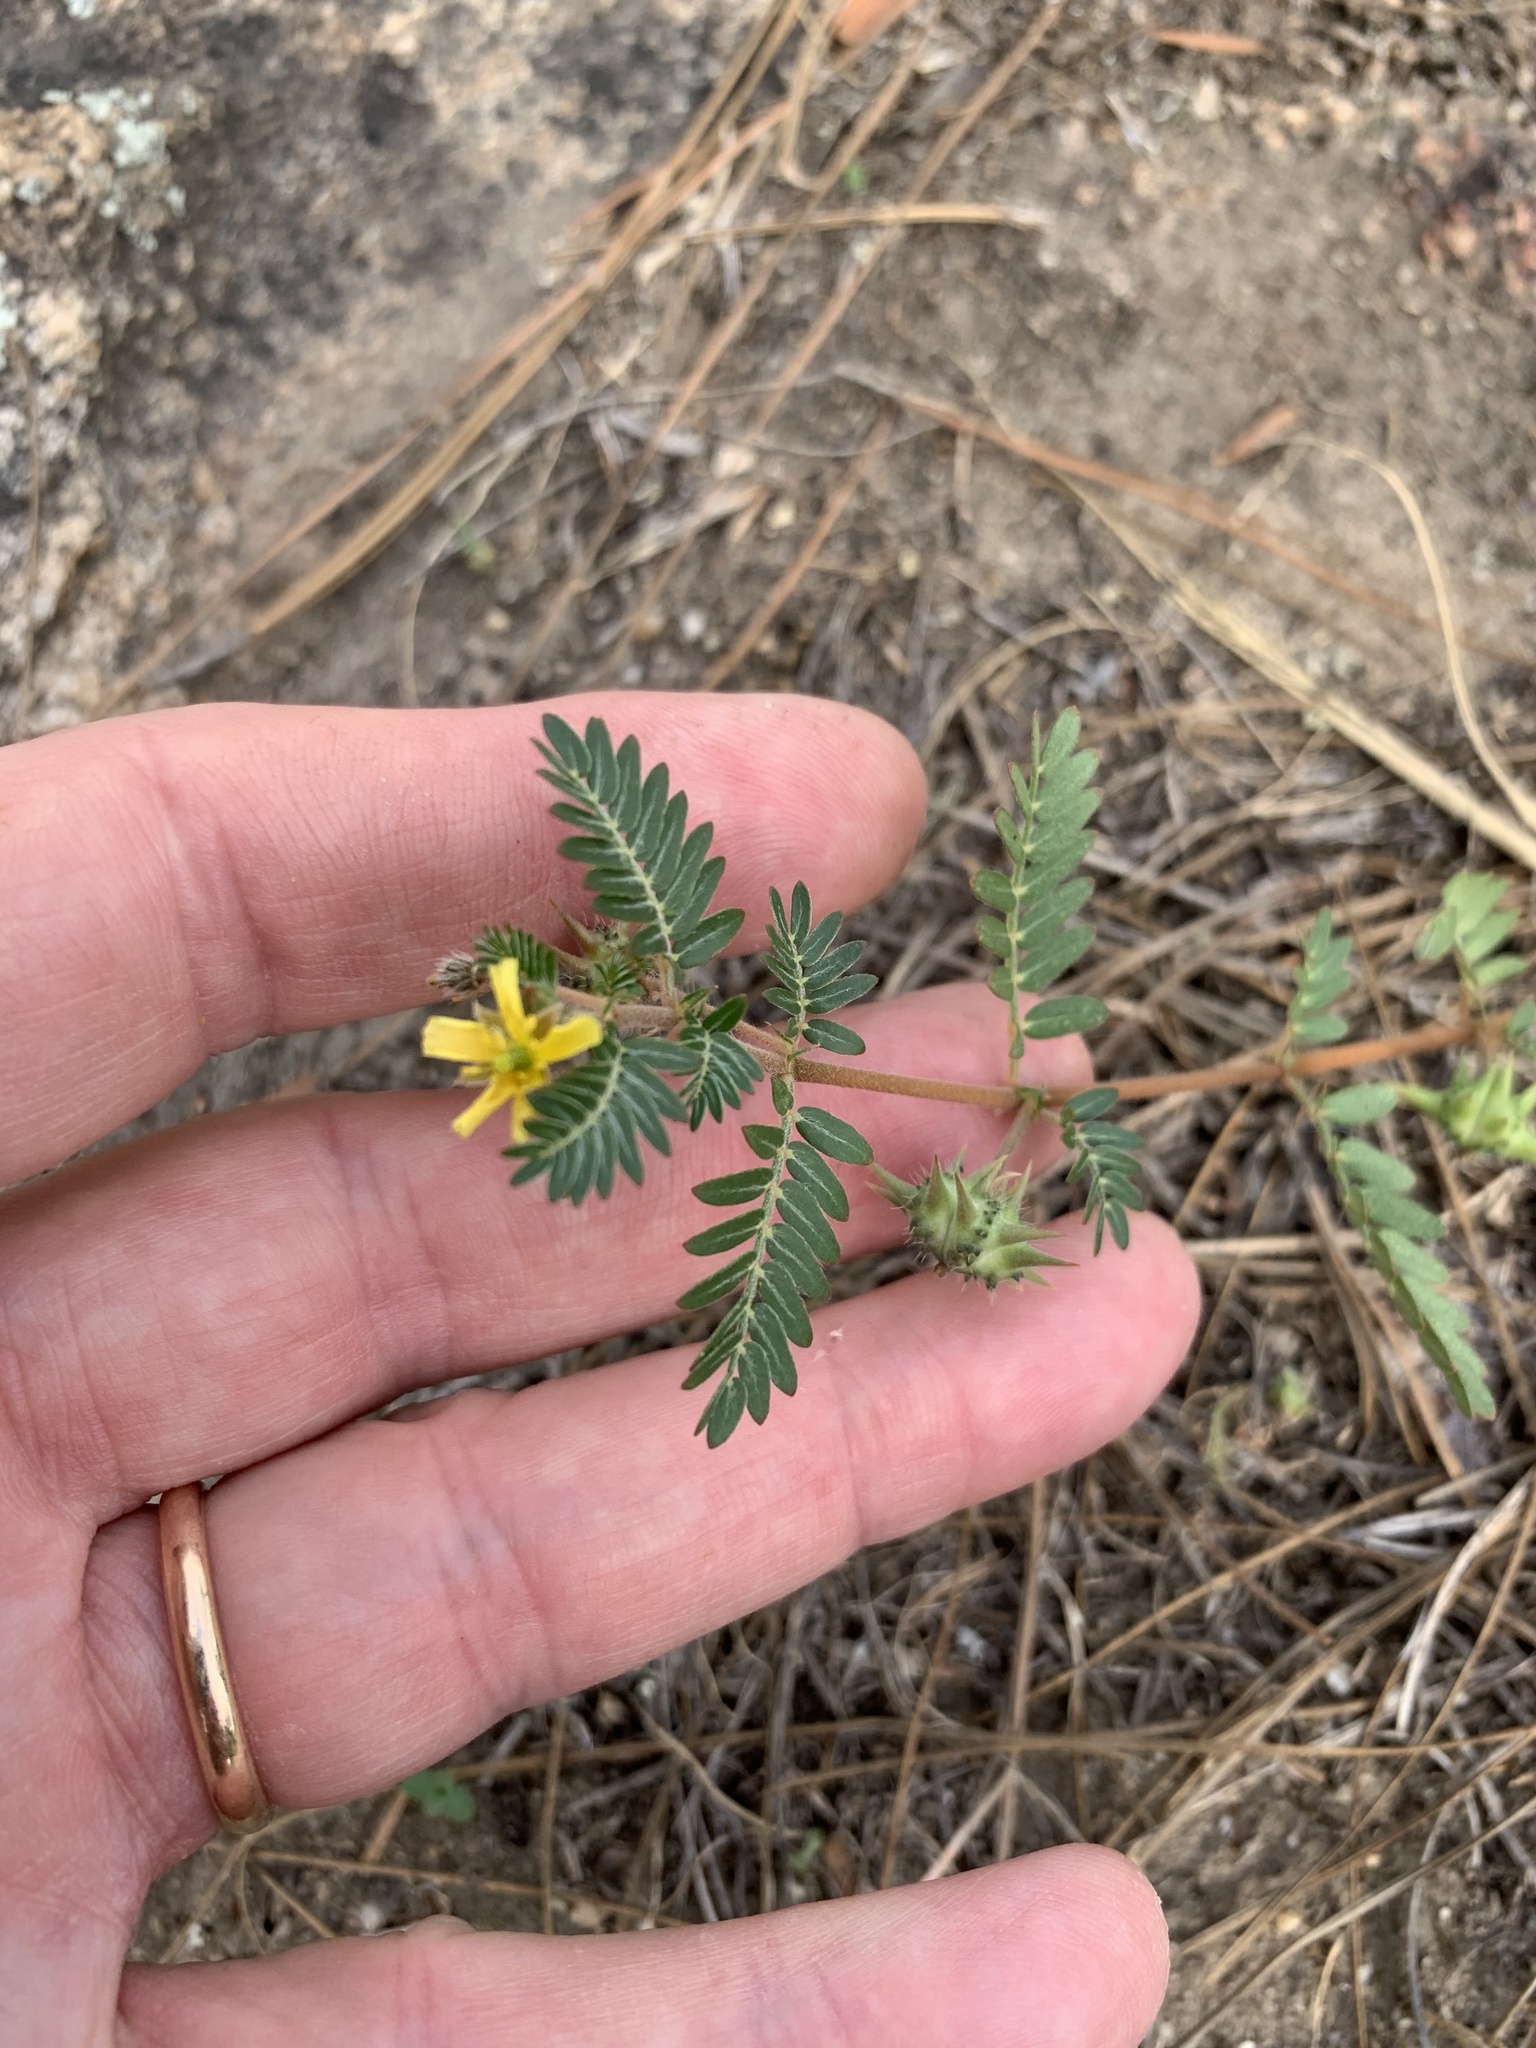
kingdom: Plantae
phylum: Tracheophyta
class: Magnoliopsida
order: Zygophyllales
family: Zygophyllaceae
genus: Tribulus
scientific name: Tribulus terrestris
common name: Puncturevine
